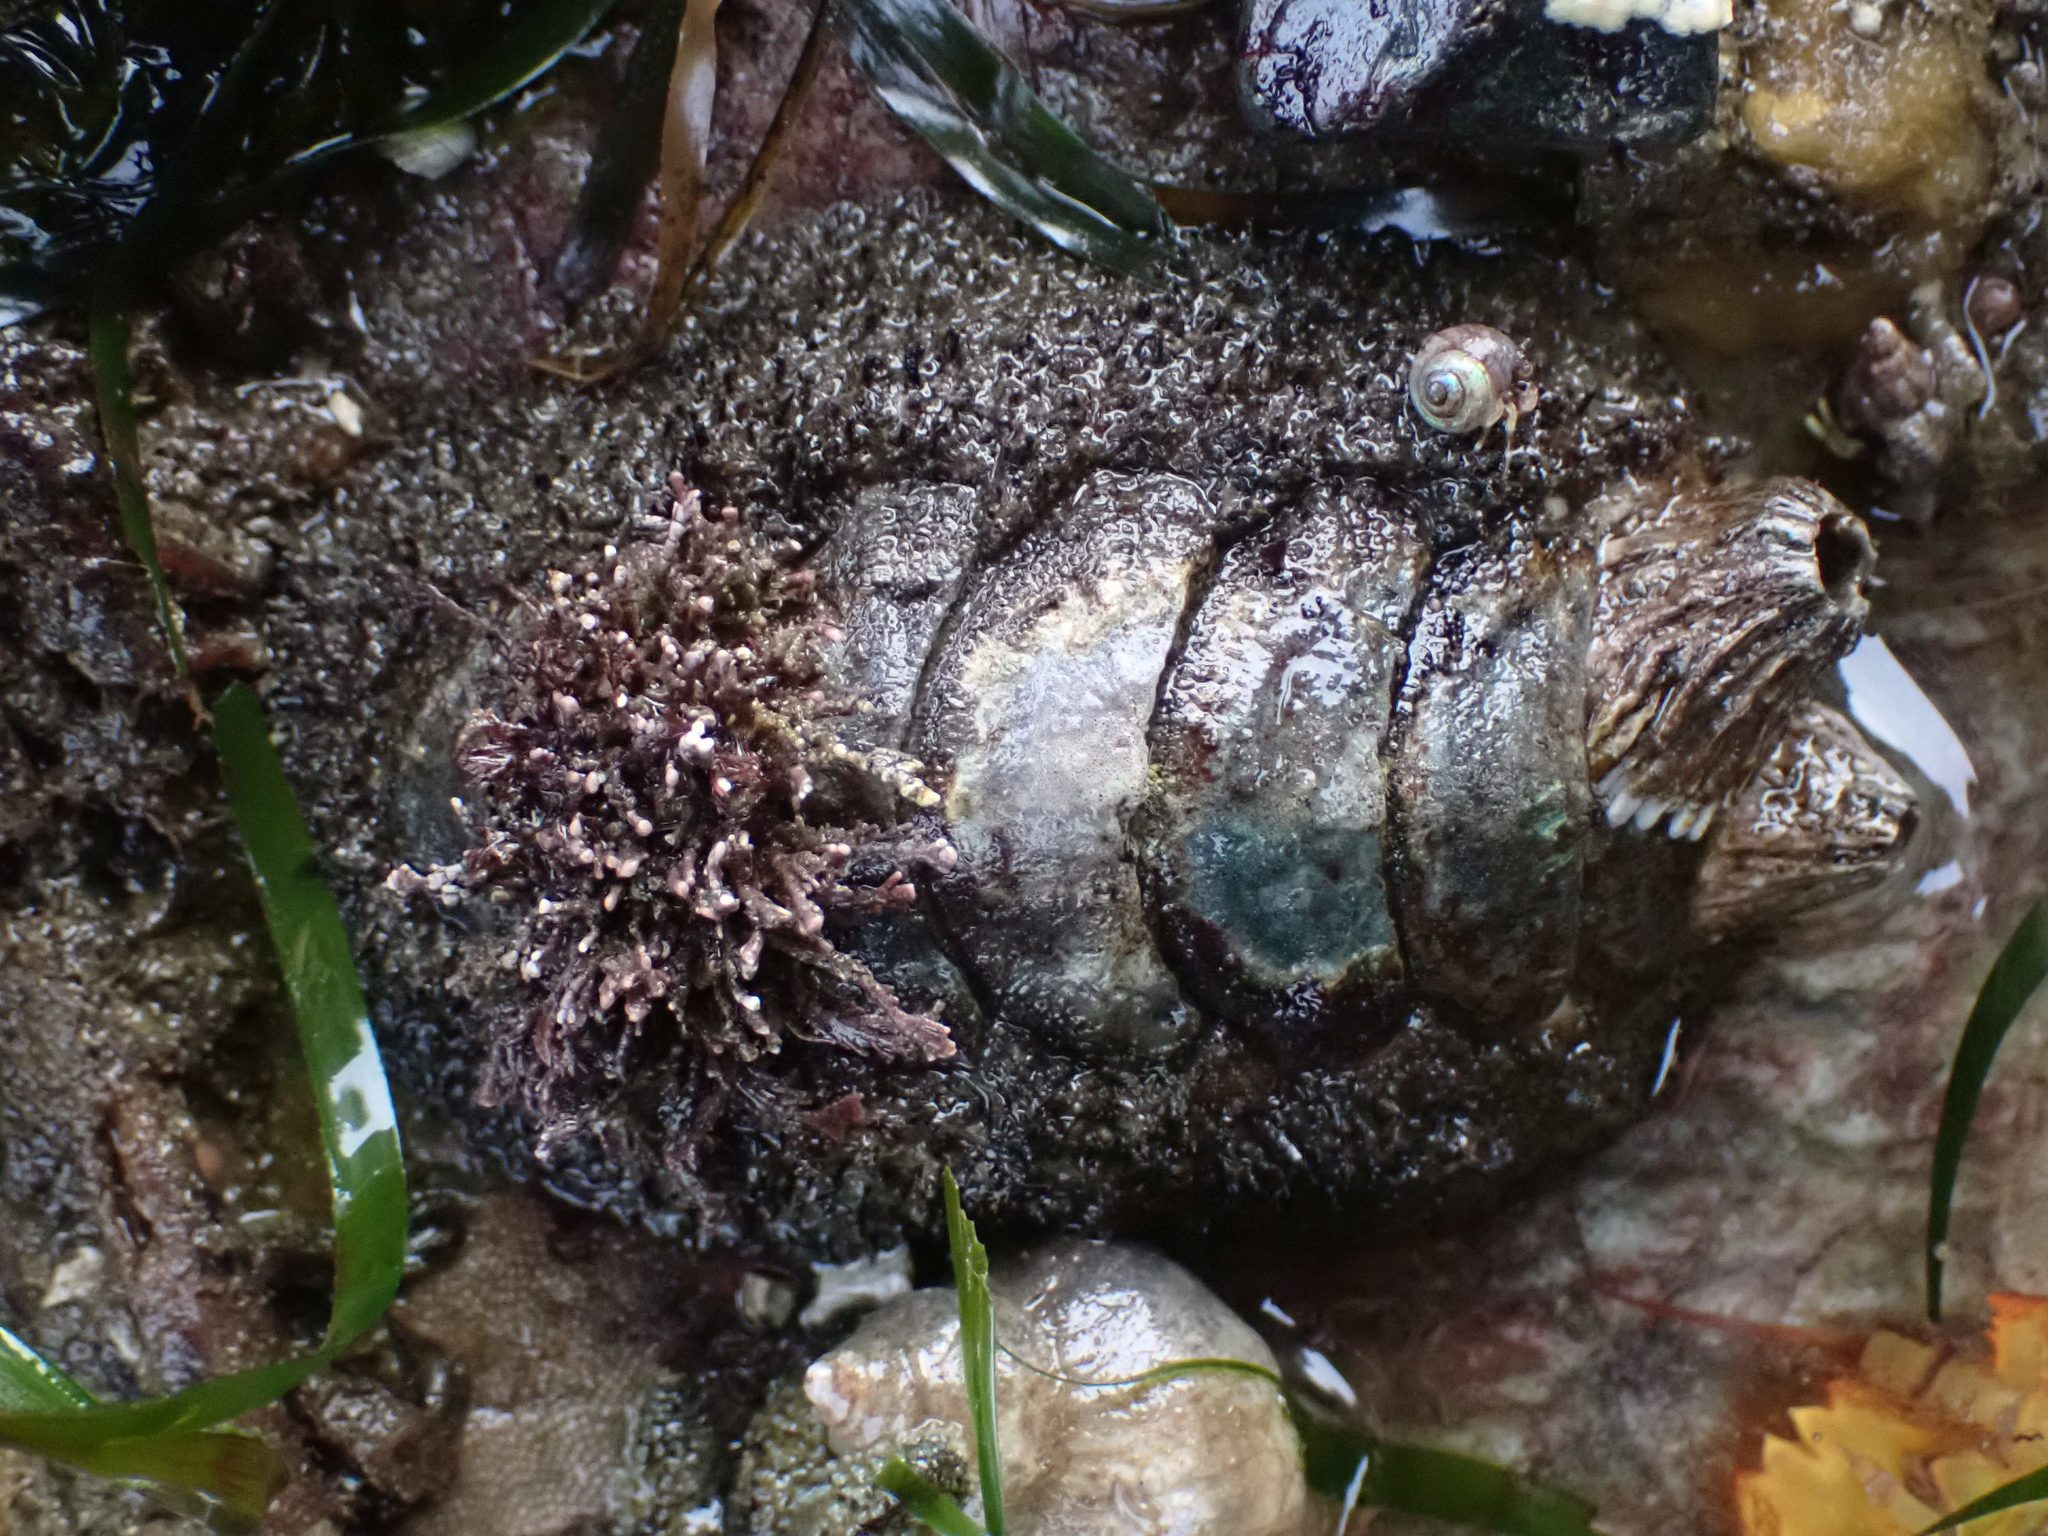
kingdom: Animalia
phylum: Mollusca
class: Polyplacophora
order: Chitonida
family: Mopaliidae
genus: Mopalia
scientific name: Mopalia muscosa
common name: Mossy chiton
